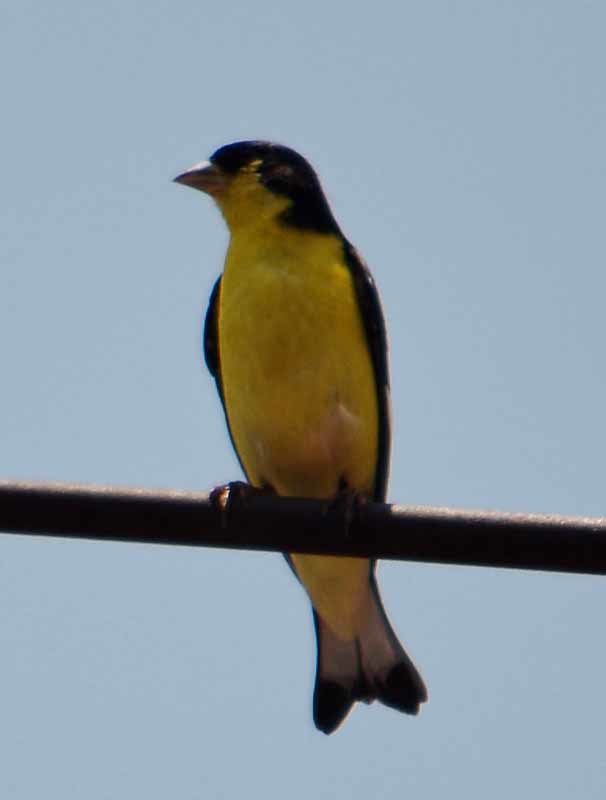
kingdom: Animalia
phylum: Chordata
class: Aves
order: Passeriformes
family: Fringillidae
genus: Spinus
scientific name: Spinus psaltria
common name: Lesser goldfinch
